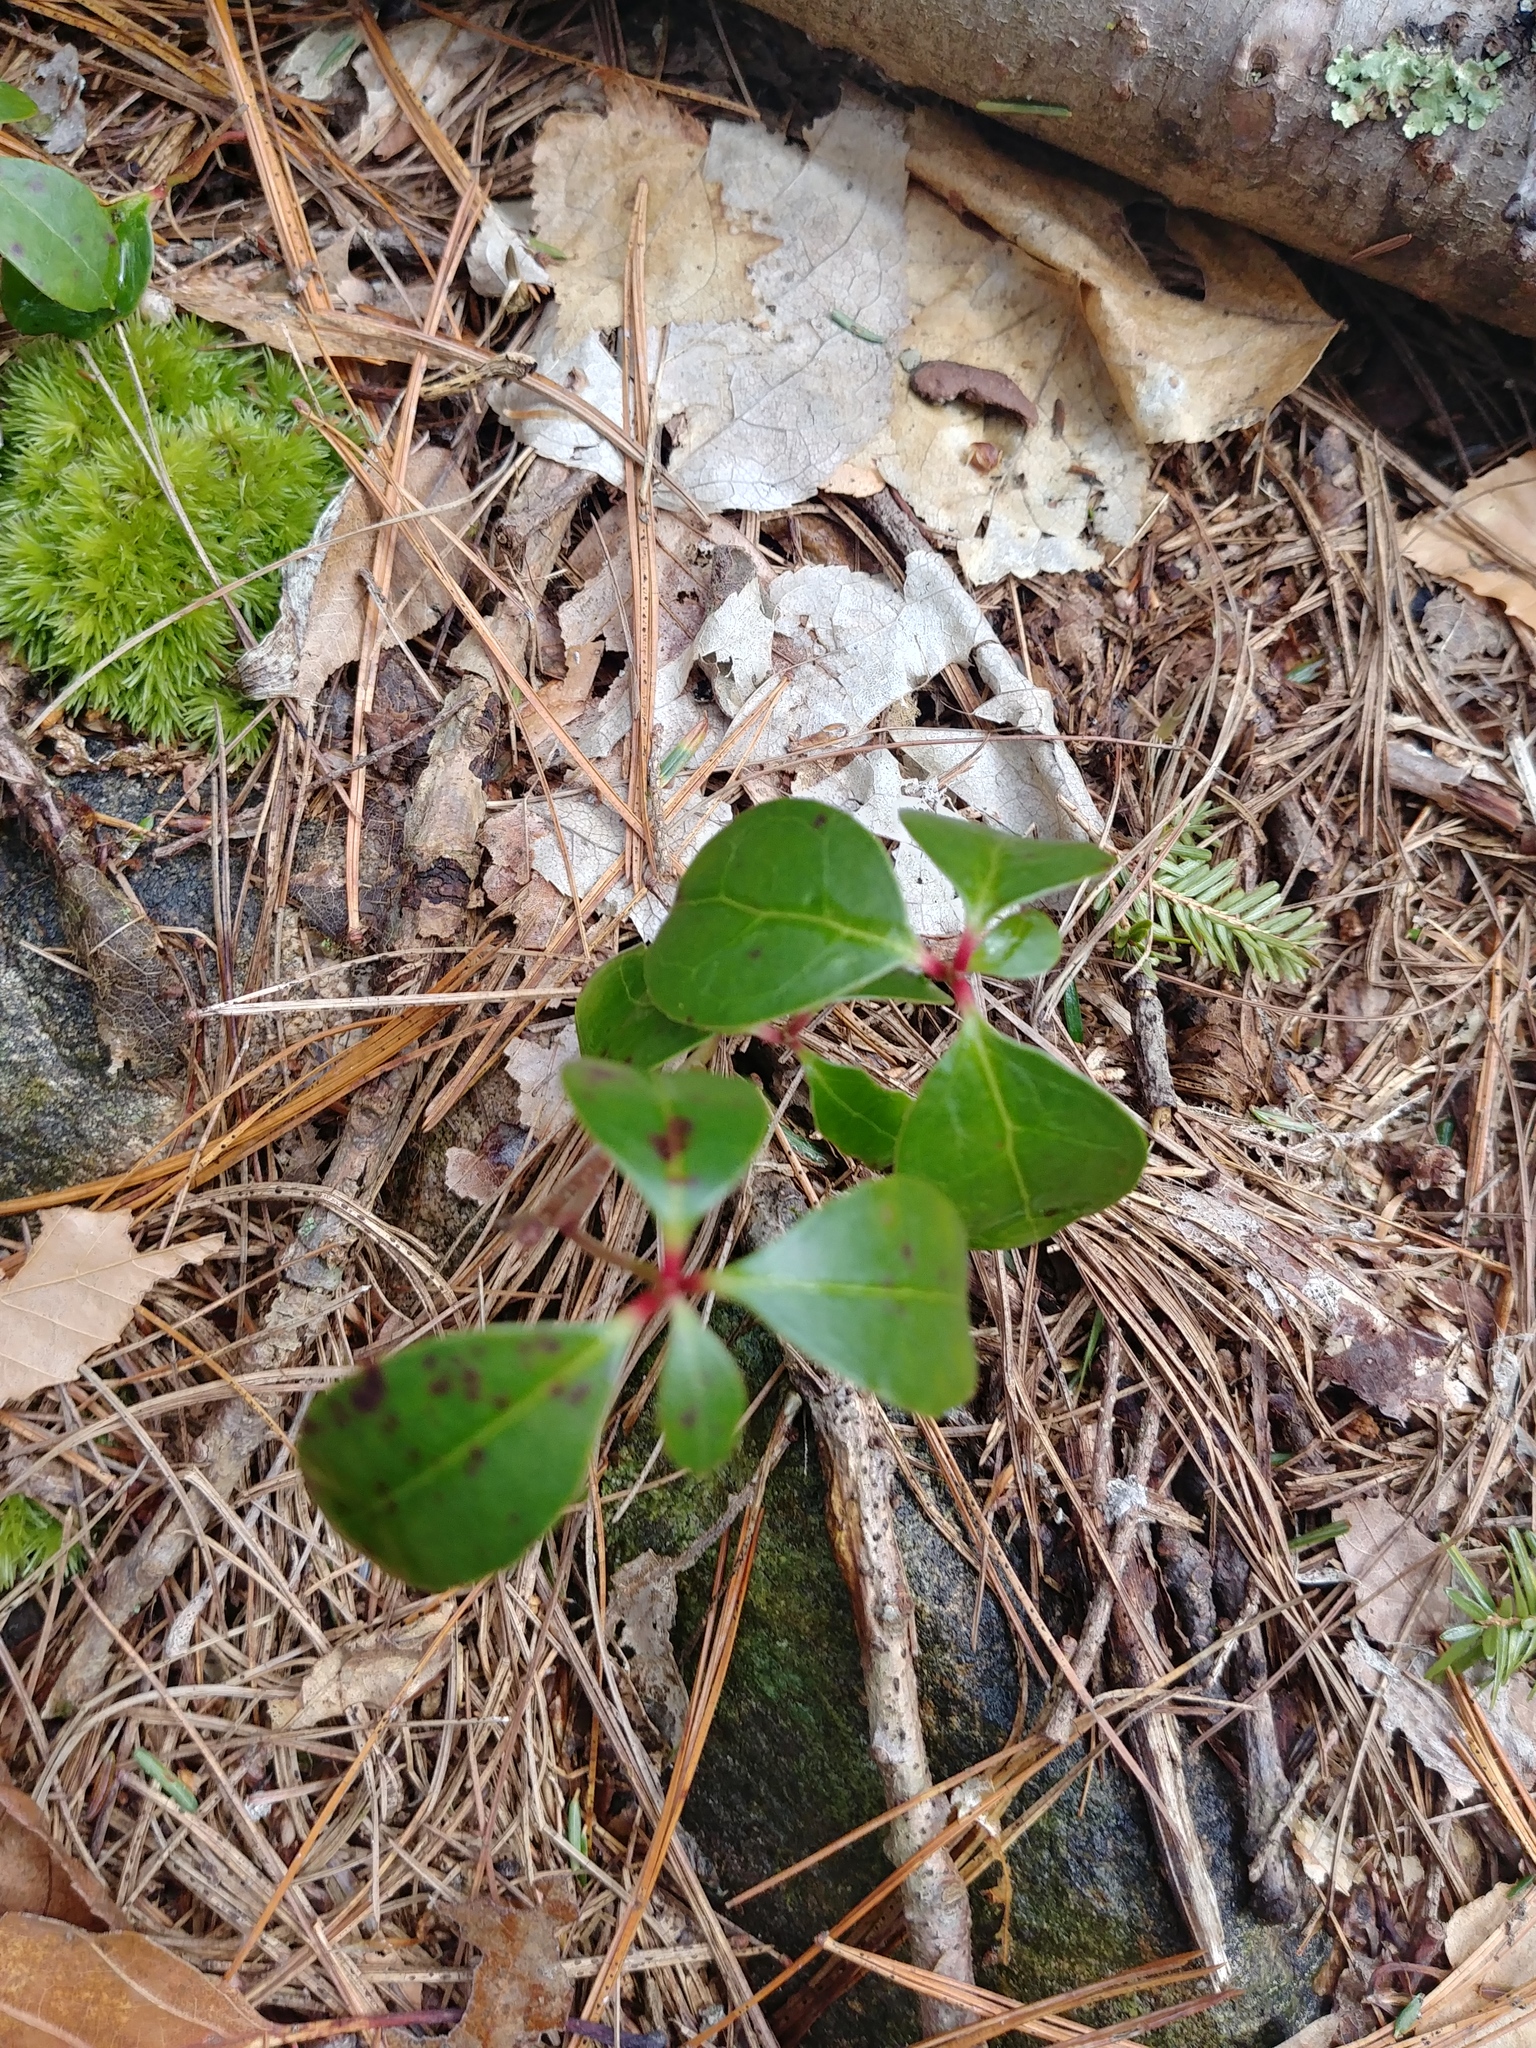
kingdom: Plantae
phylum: Tracheophyta
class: Magnoliopsida
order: Ericales
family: Ericaceae
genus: Gaultheria
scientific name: Gaultheria procumbens
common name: Checkerberry
